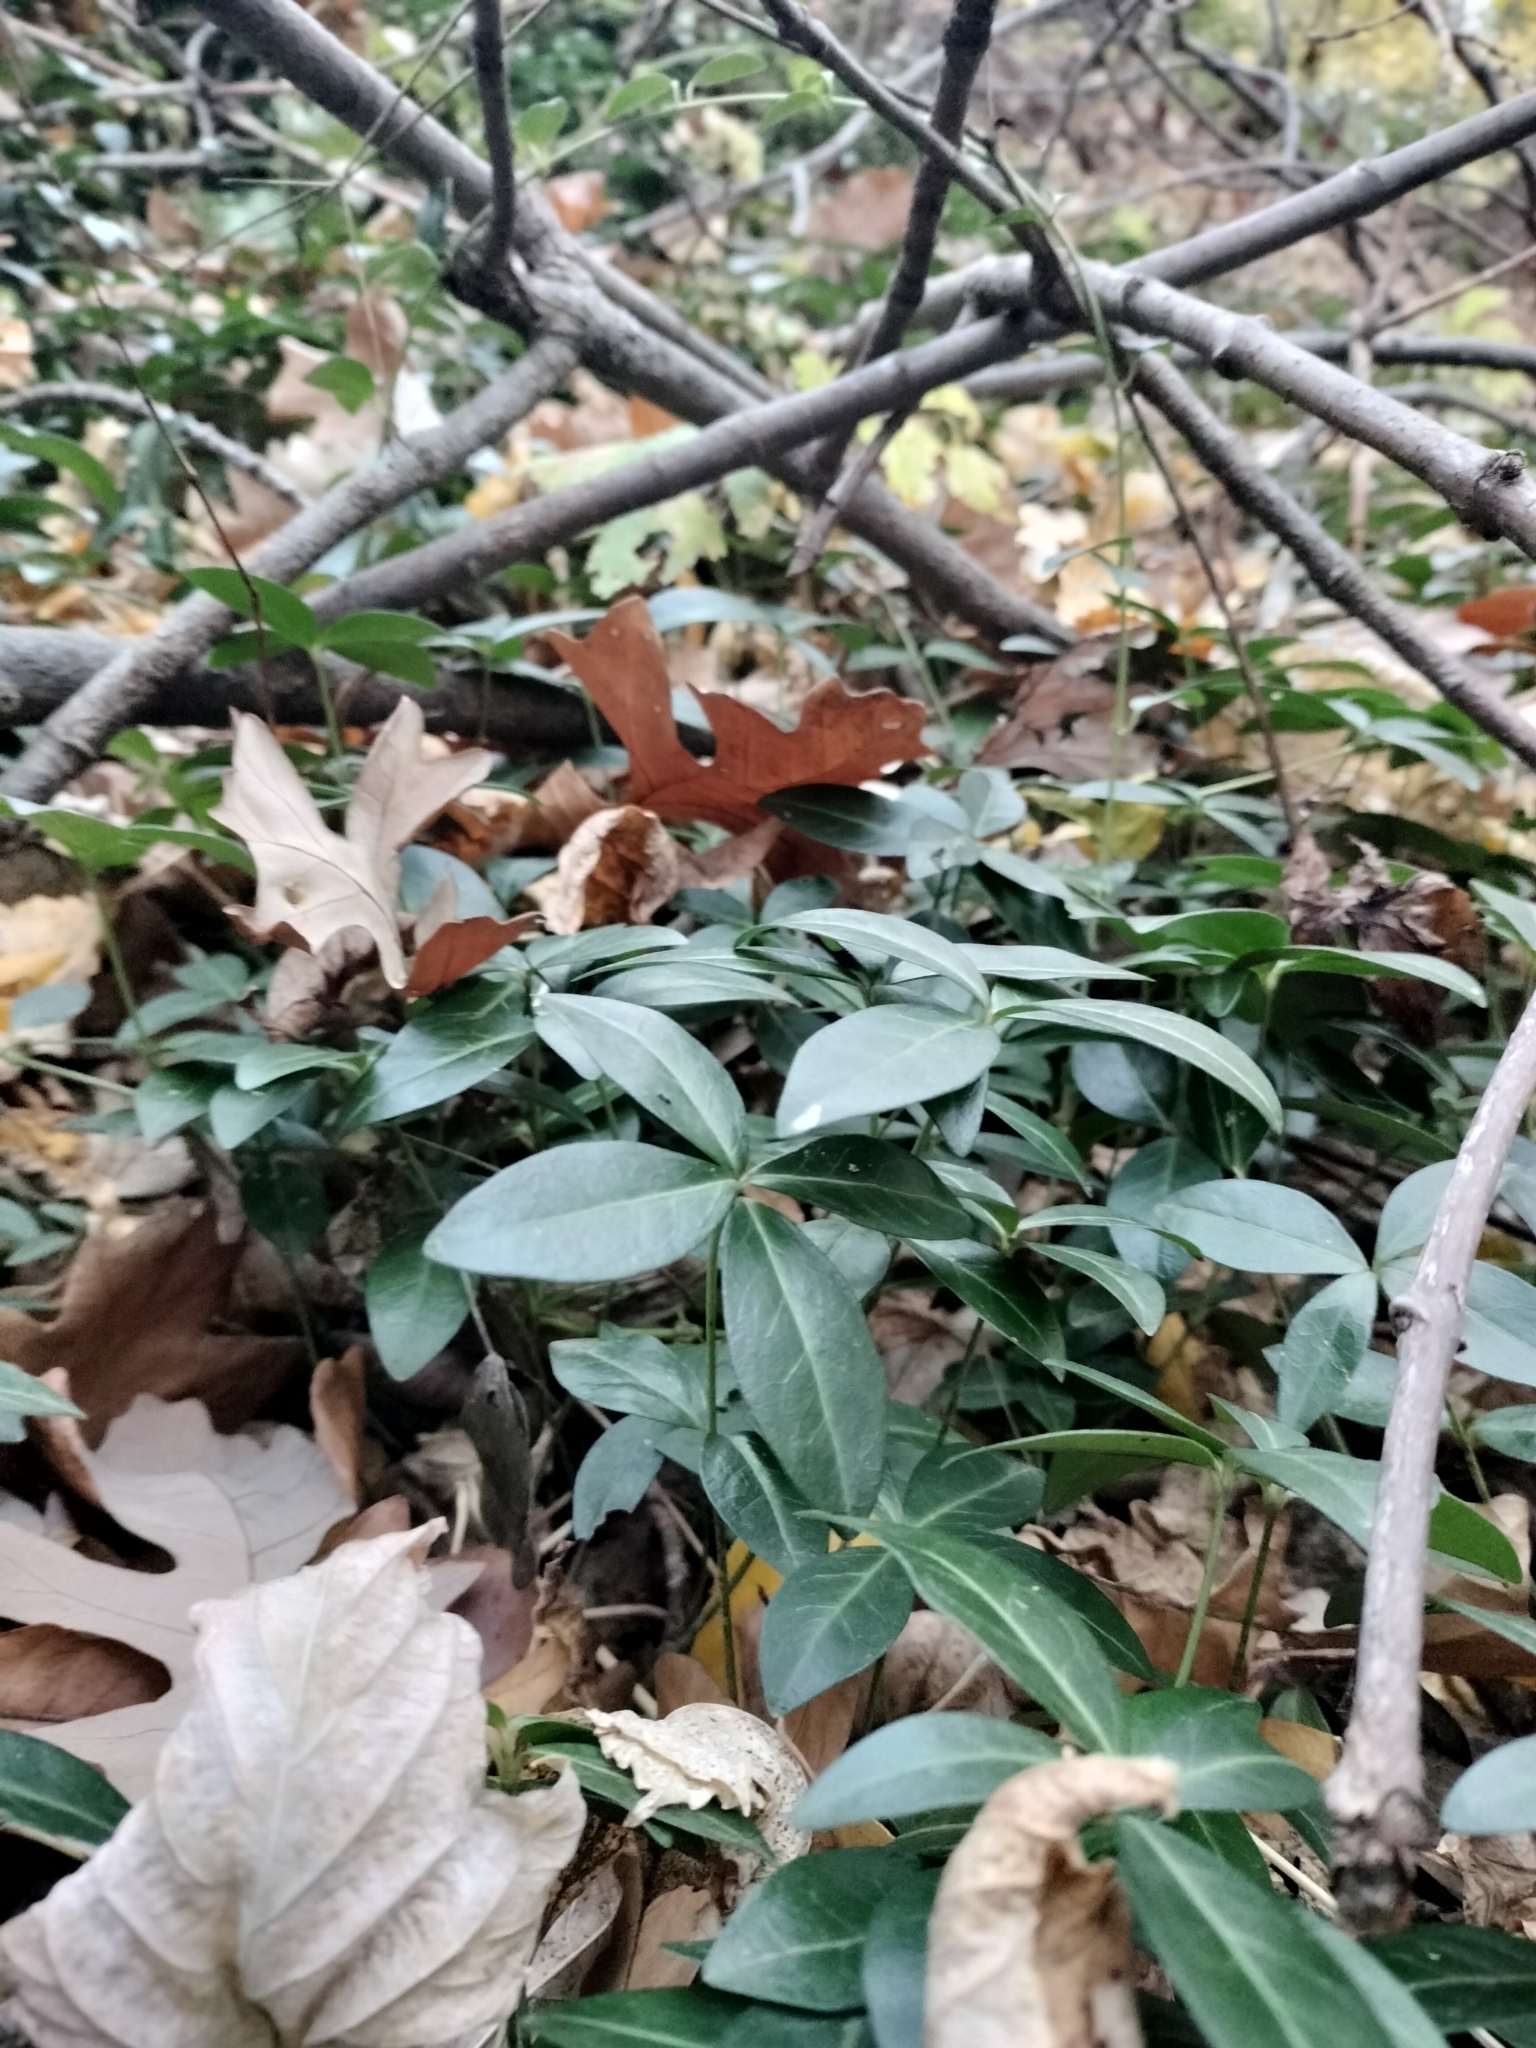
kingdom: Plantae
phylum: Tracheophyta
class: Magnoliopsida
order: Gentianales
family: Apocynaceae
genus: Vinca
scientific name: Vinca minor
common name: Lesser periwinkle
